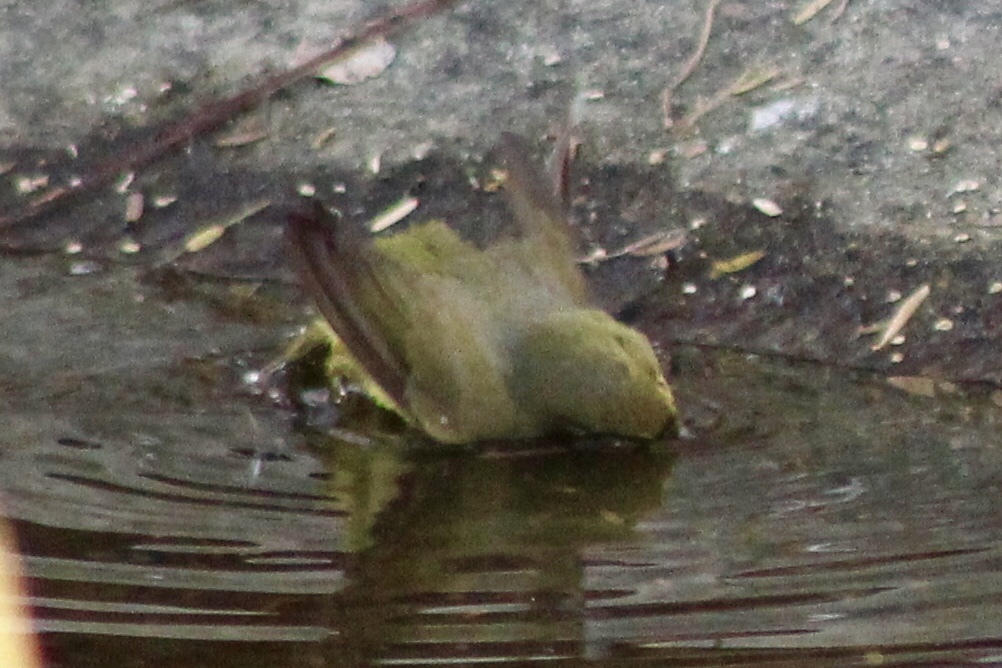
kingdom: Animalia
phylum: Chordata
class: Aves
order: Passeriformes
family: Parulidae
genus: Leiothlypis
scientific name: Leiothlypis celata
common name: Orange-crowned warbler
